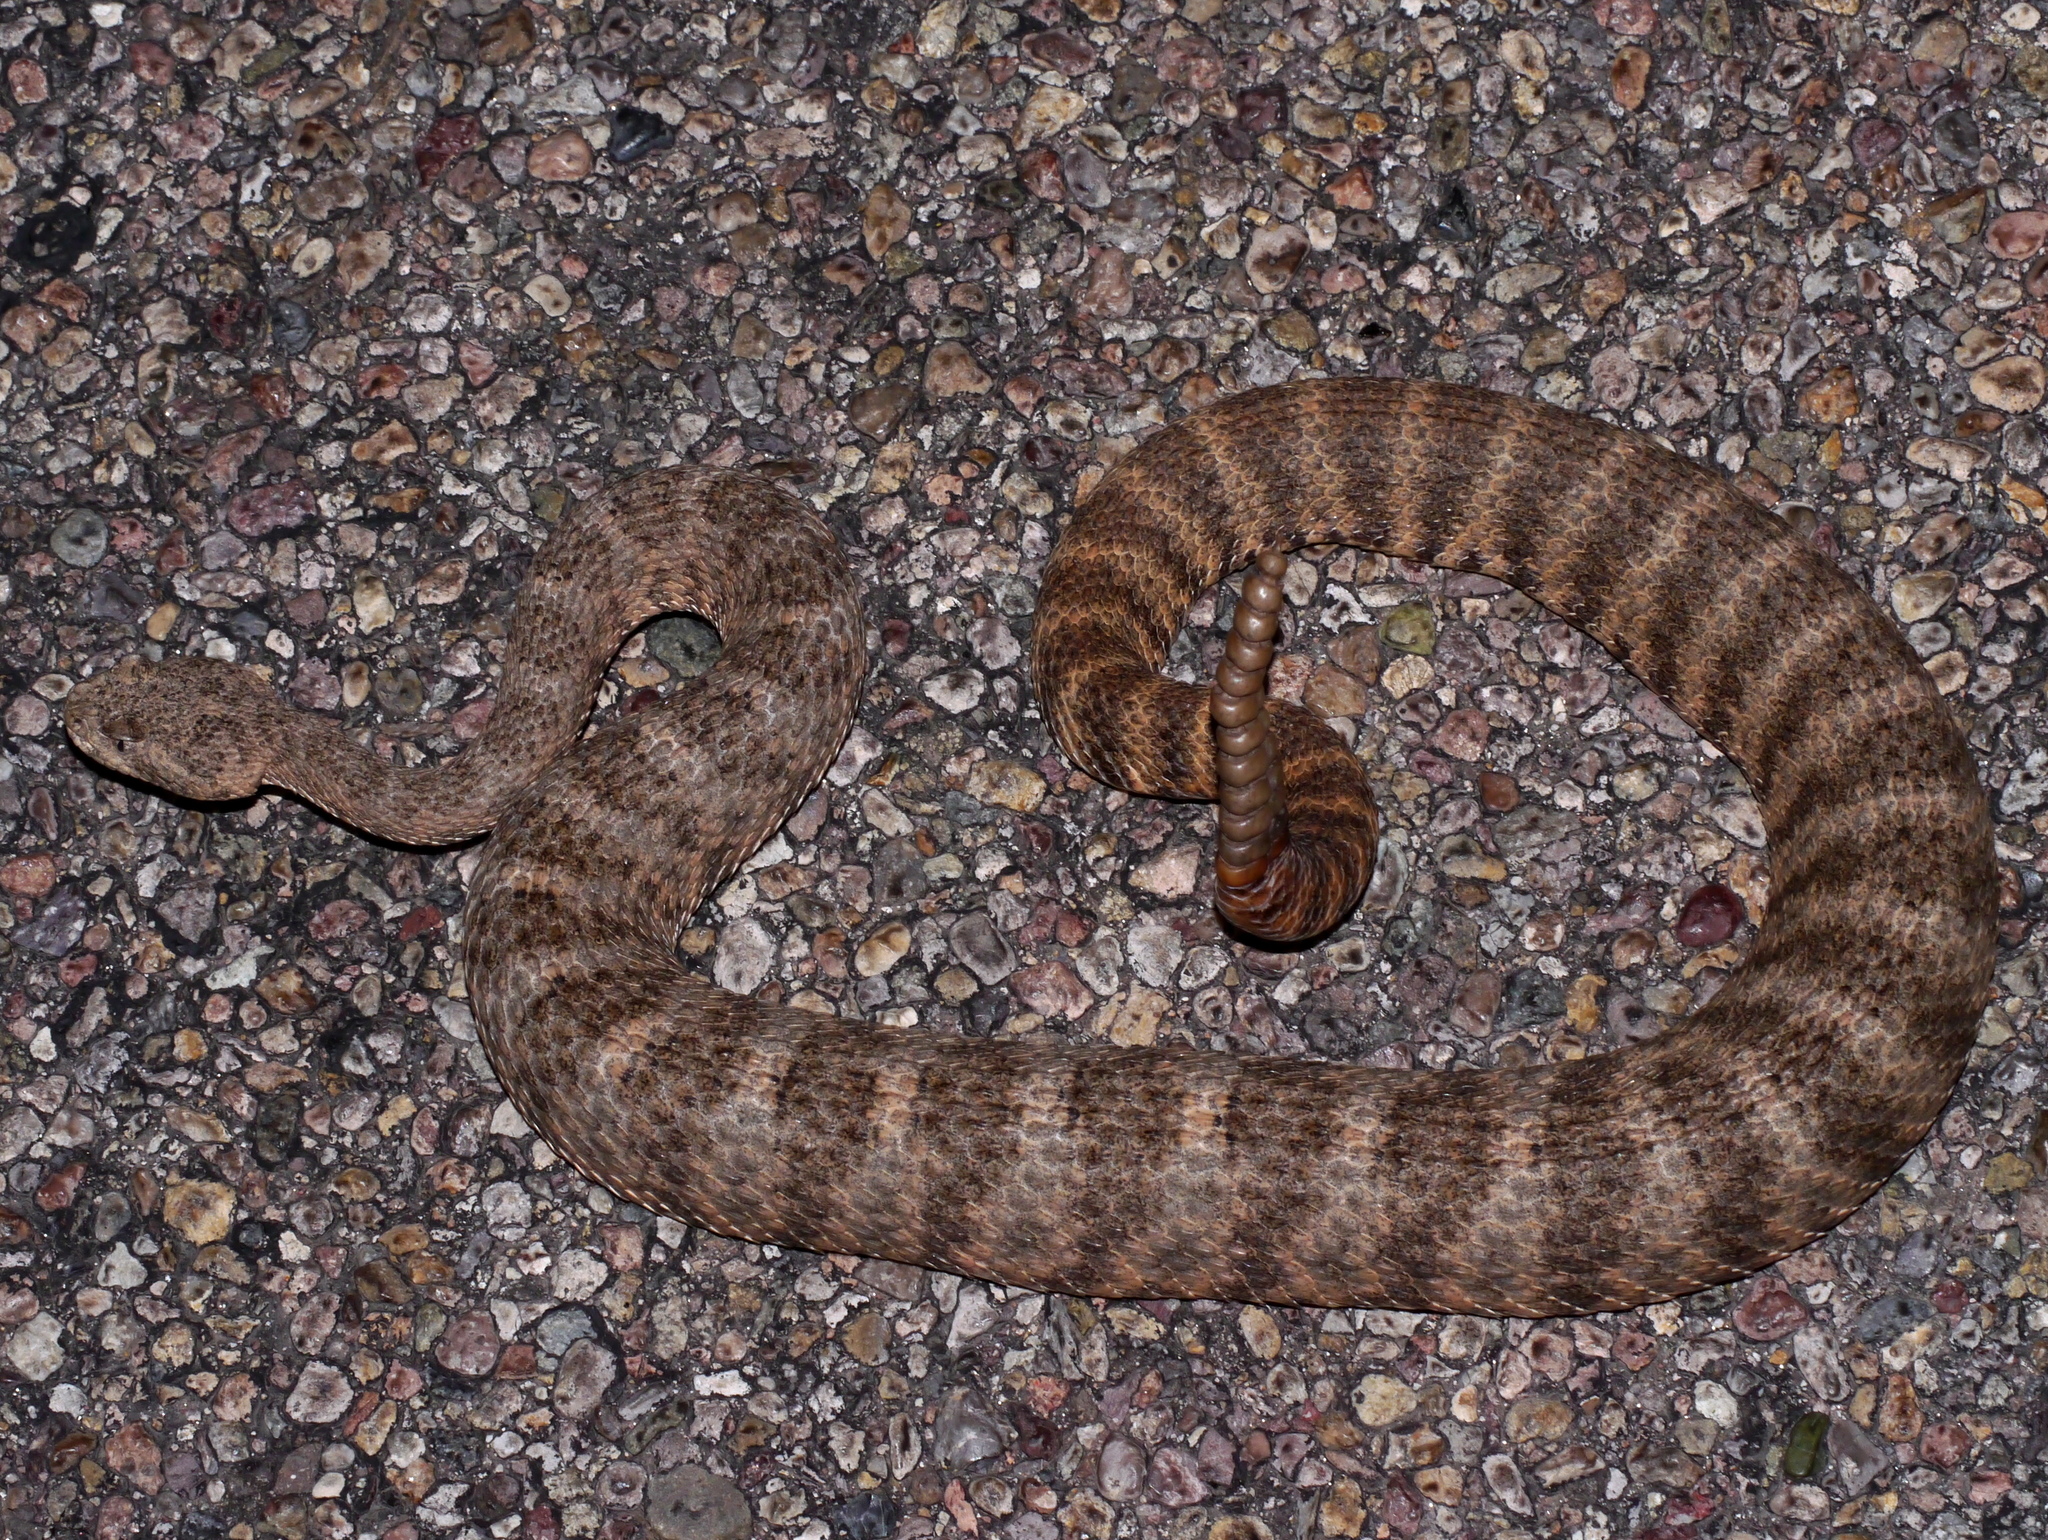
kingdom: Animalia
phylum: Chordata
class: Squamata
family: Viperidae
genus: Crotalus
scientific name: Crotalus tigris
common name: Tiger rattlesnake
